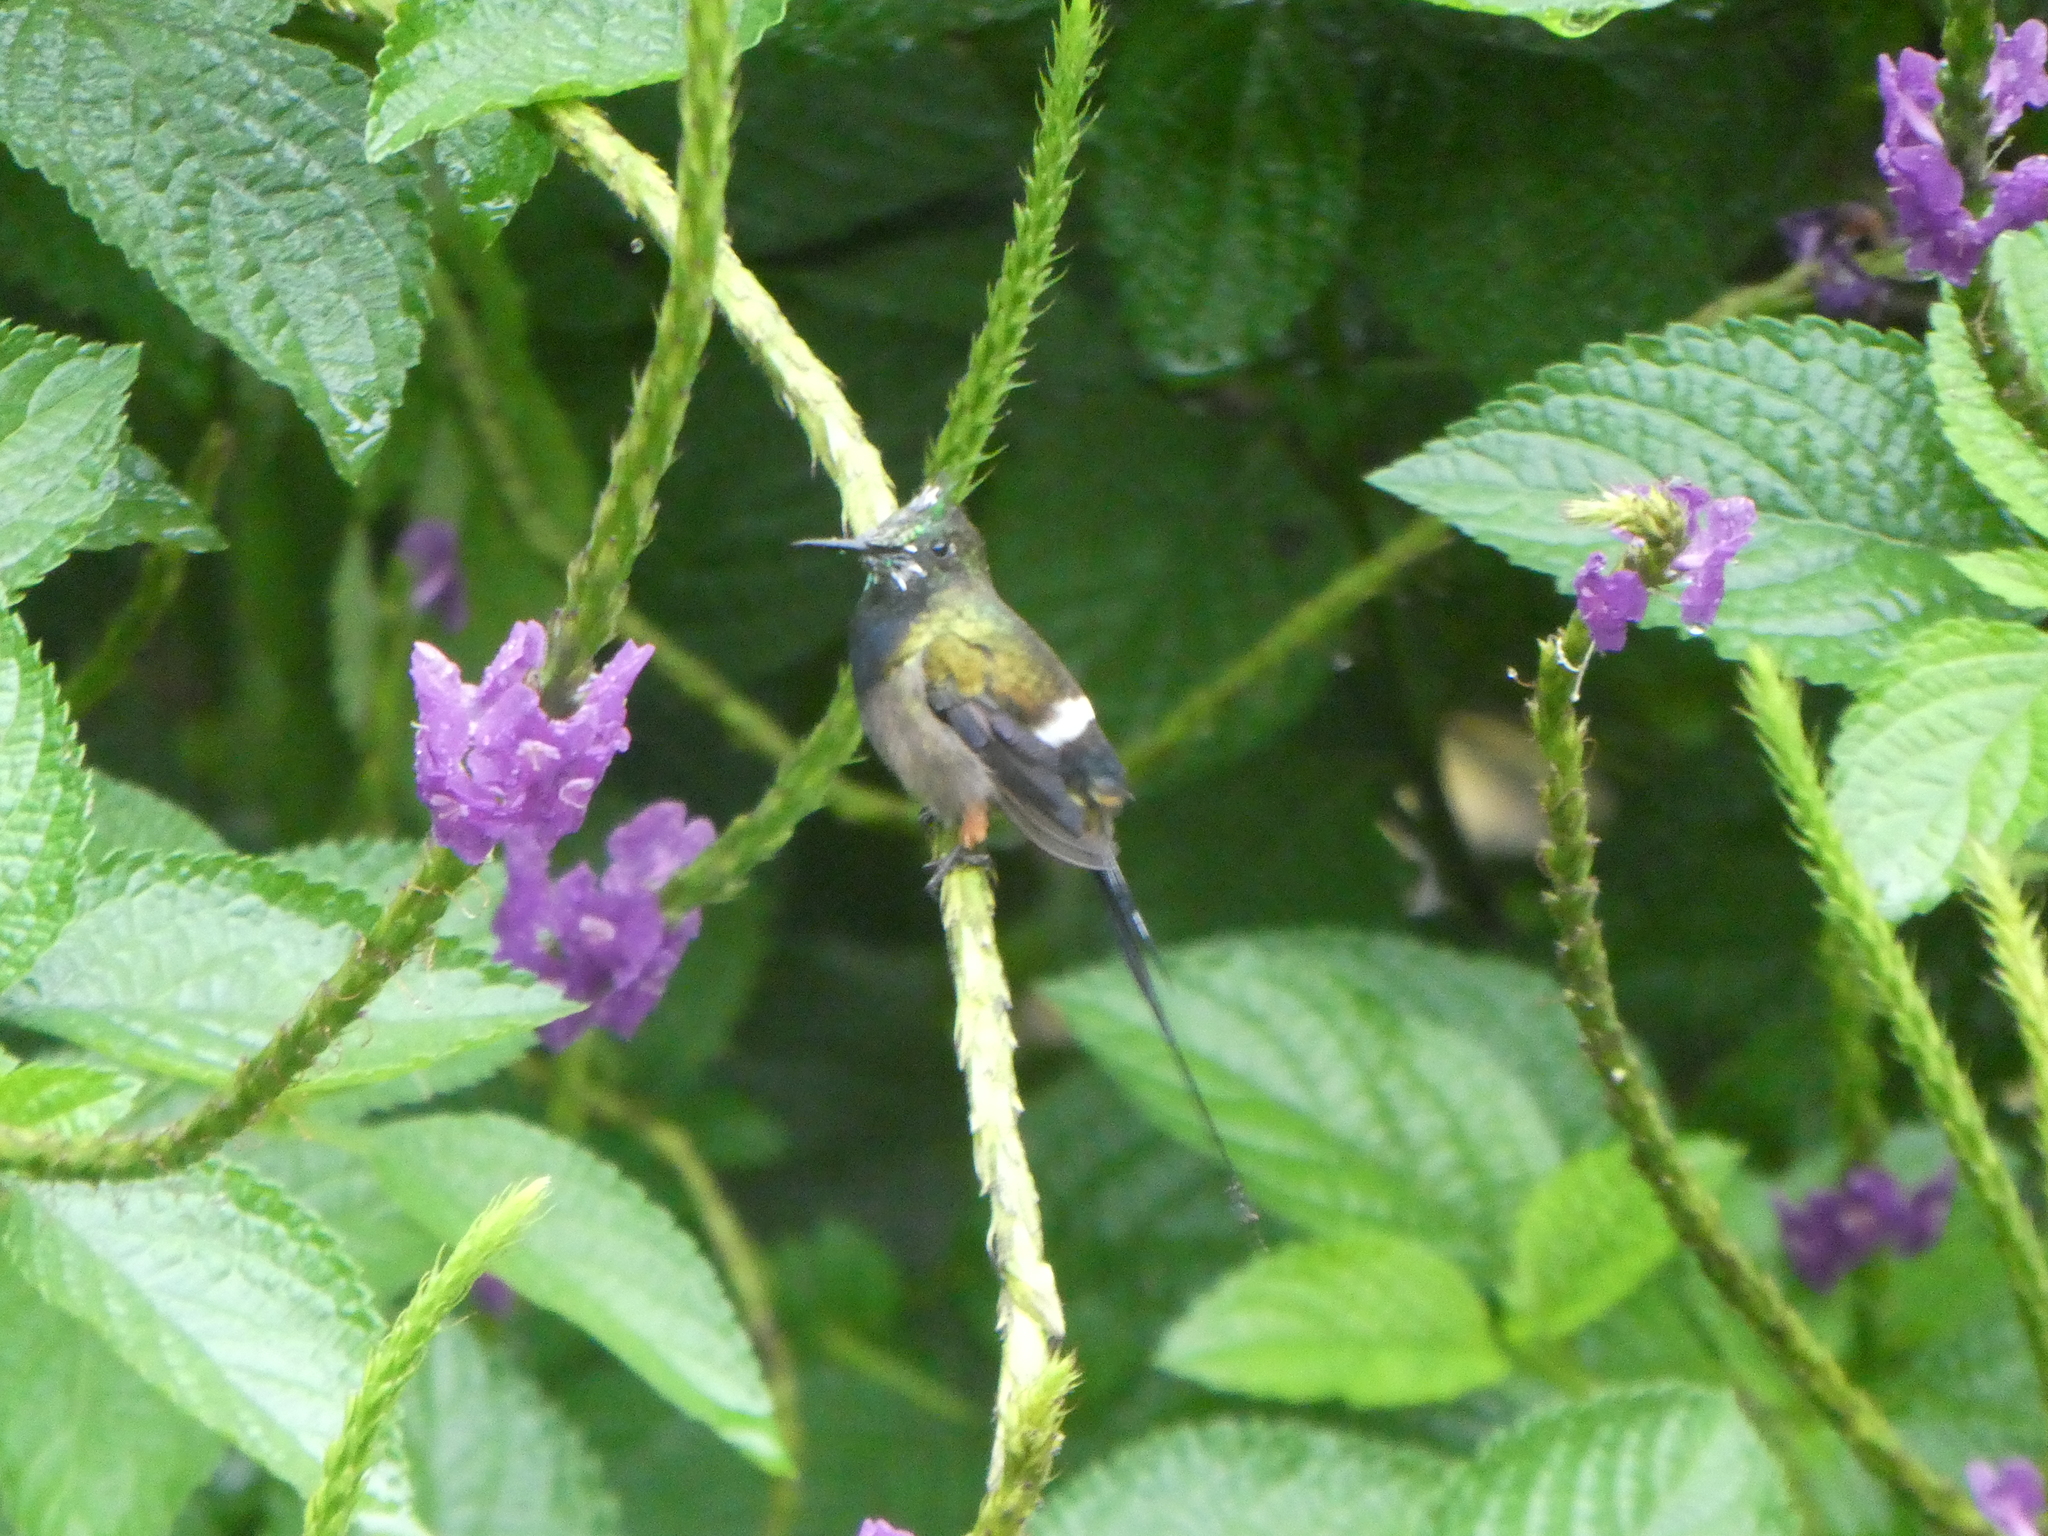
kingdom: Animalia
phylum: Chordata
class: Aves
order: Apodiformes
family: Trochilidae
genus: Discosura
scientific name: Discosura popelairii
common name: Wire-crested thorntail
